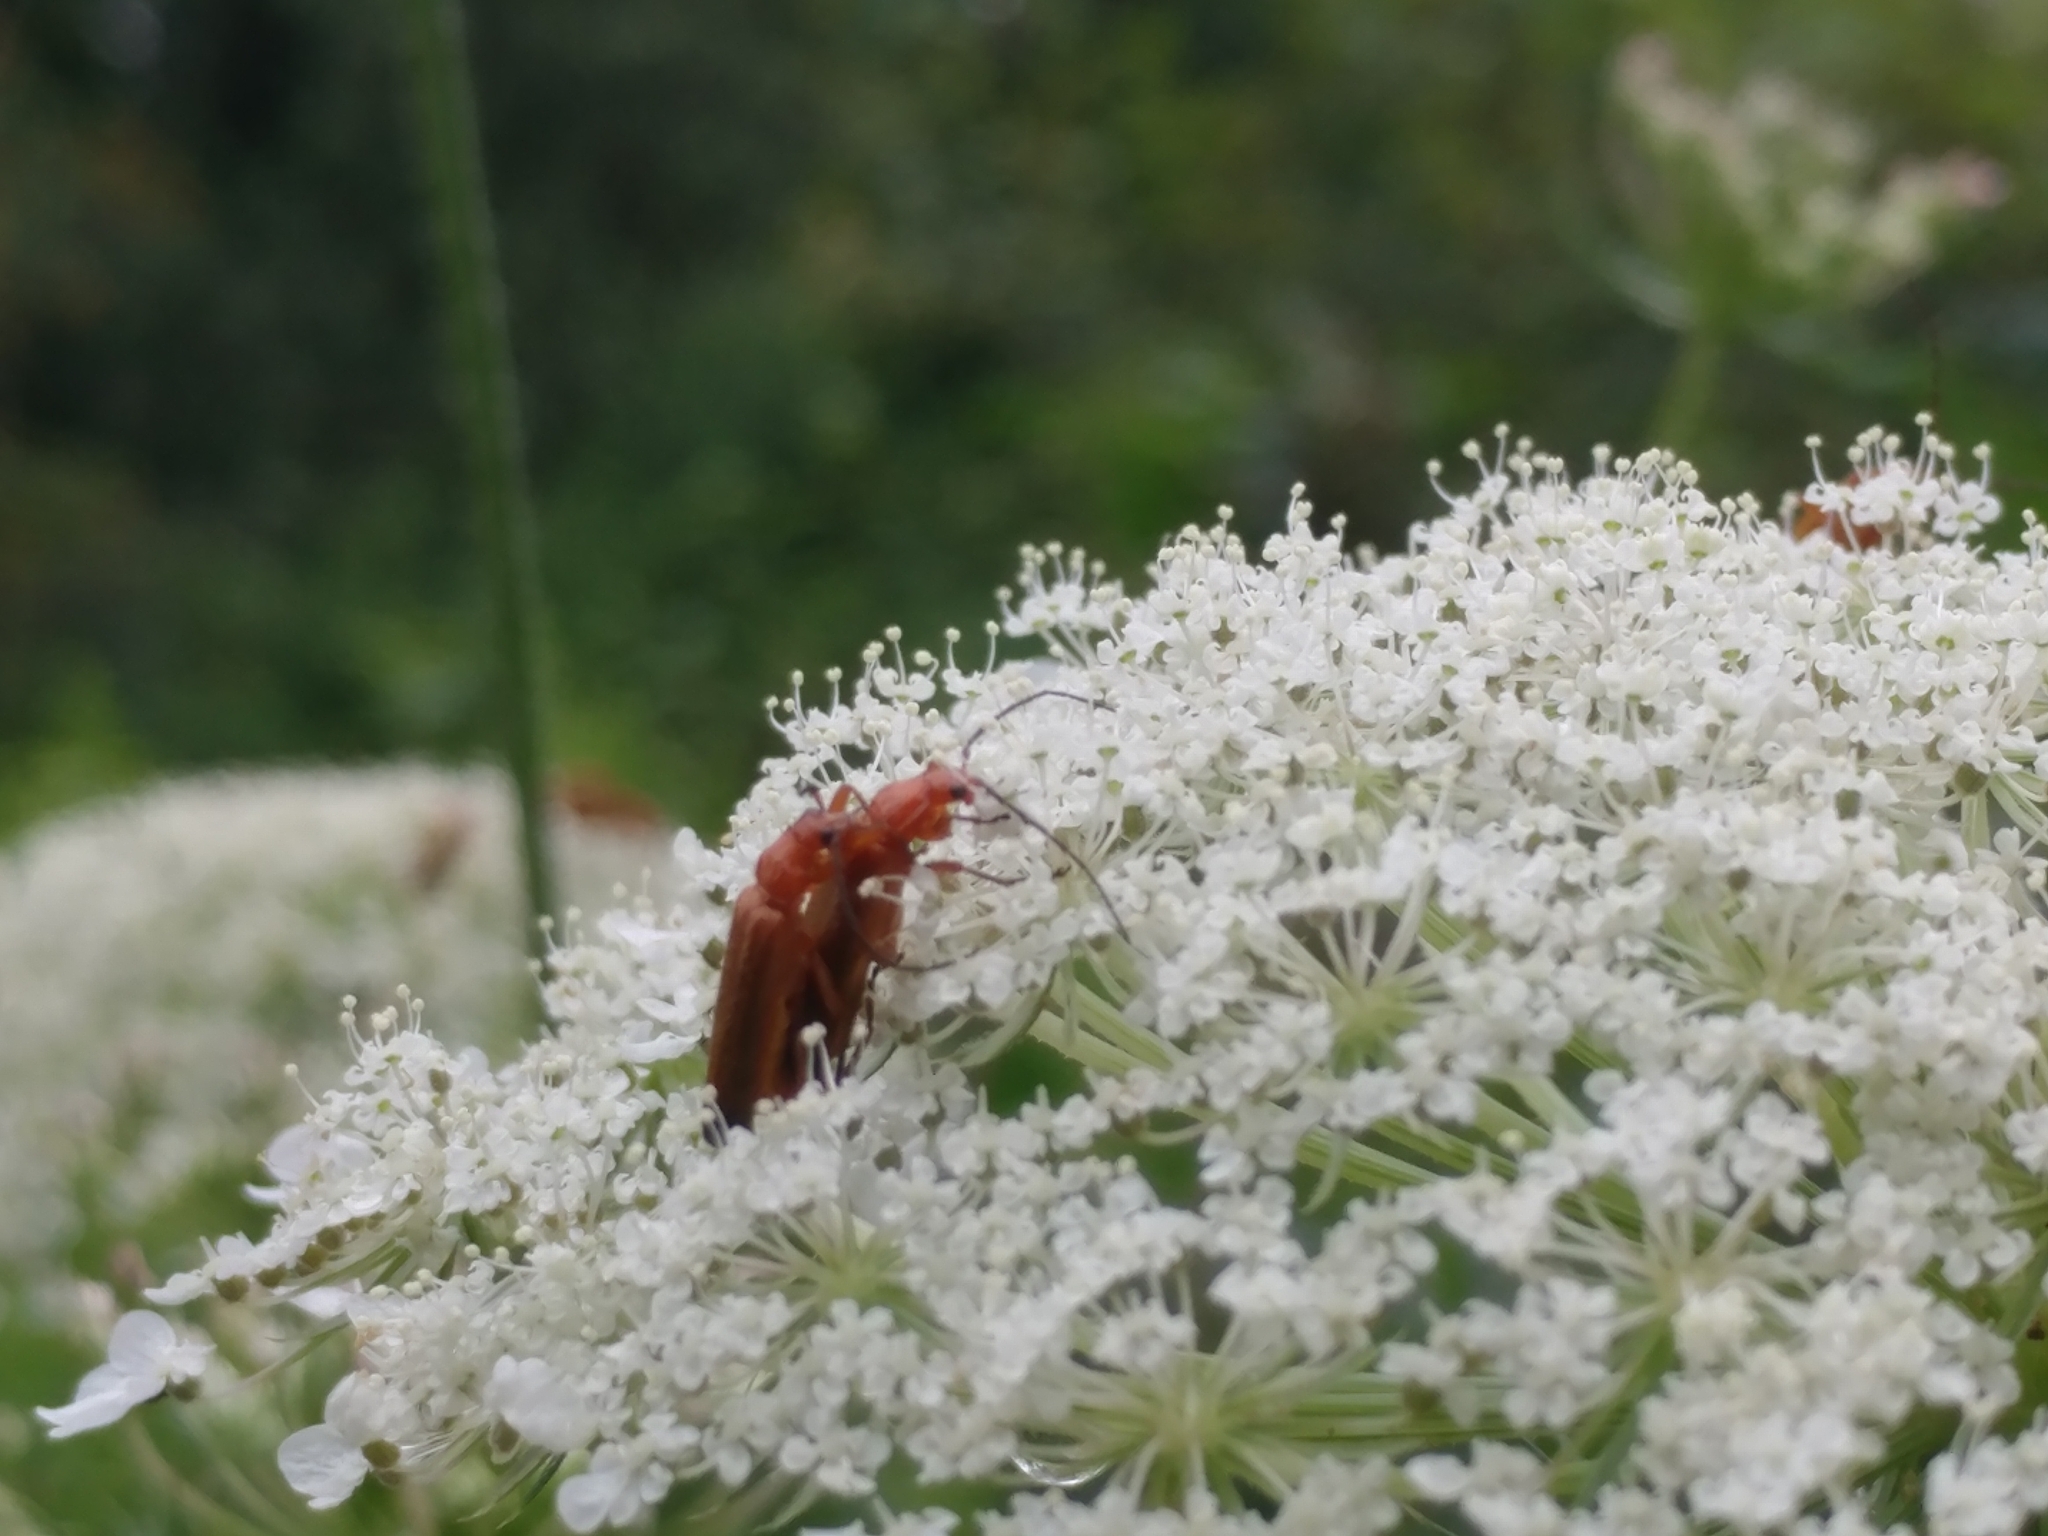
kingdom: Animalia
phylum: Arthropoda
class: Insecta
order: Coleoptera
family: Cantharidae
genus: Rhagonycha
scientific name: Rhagonycha fulva
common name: Common red soldier beetle
